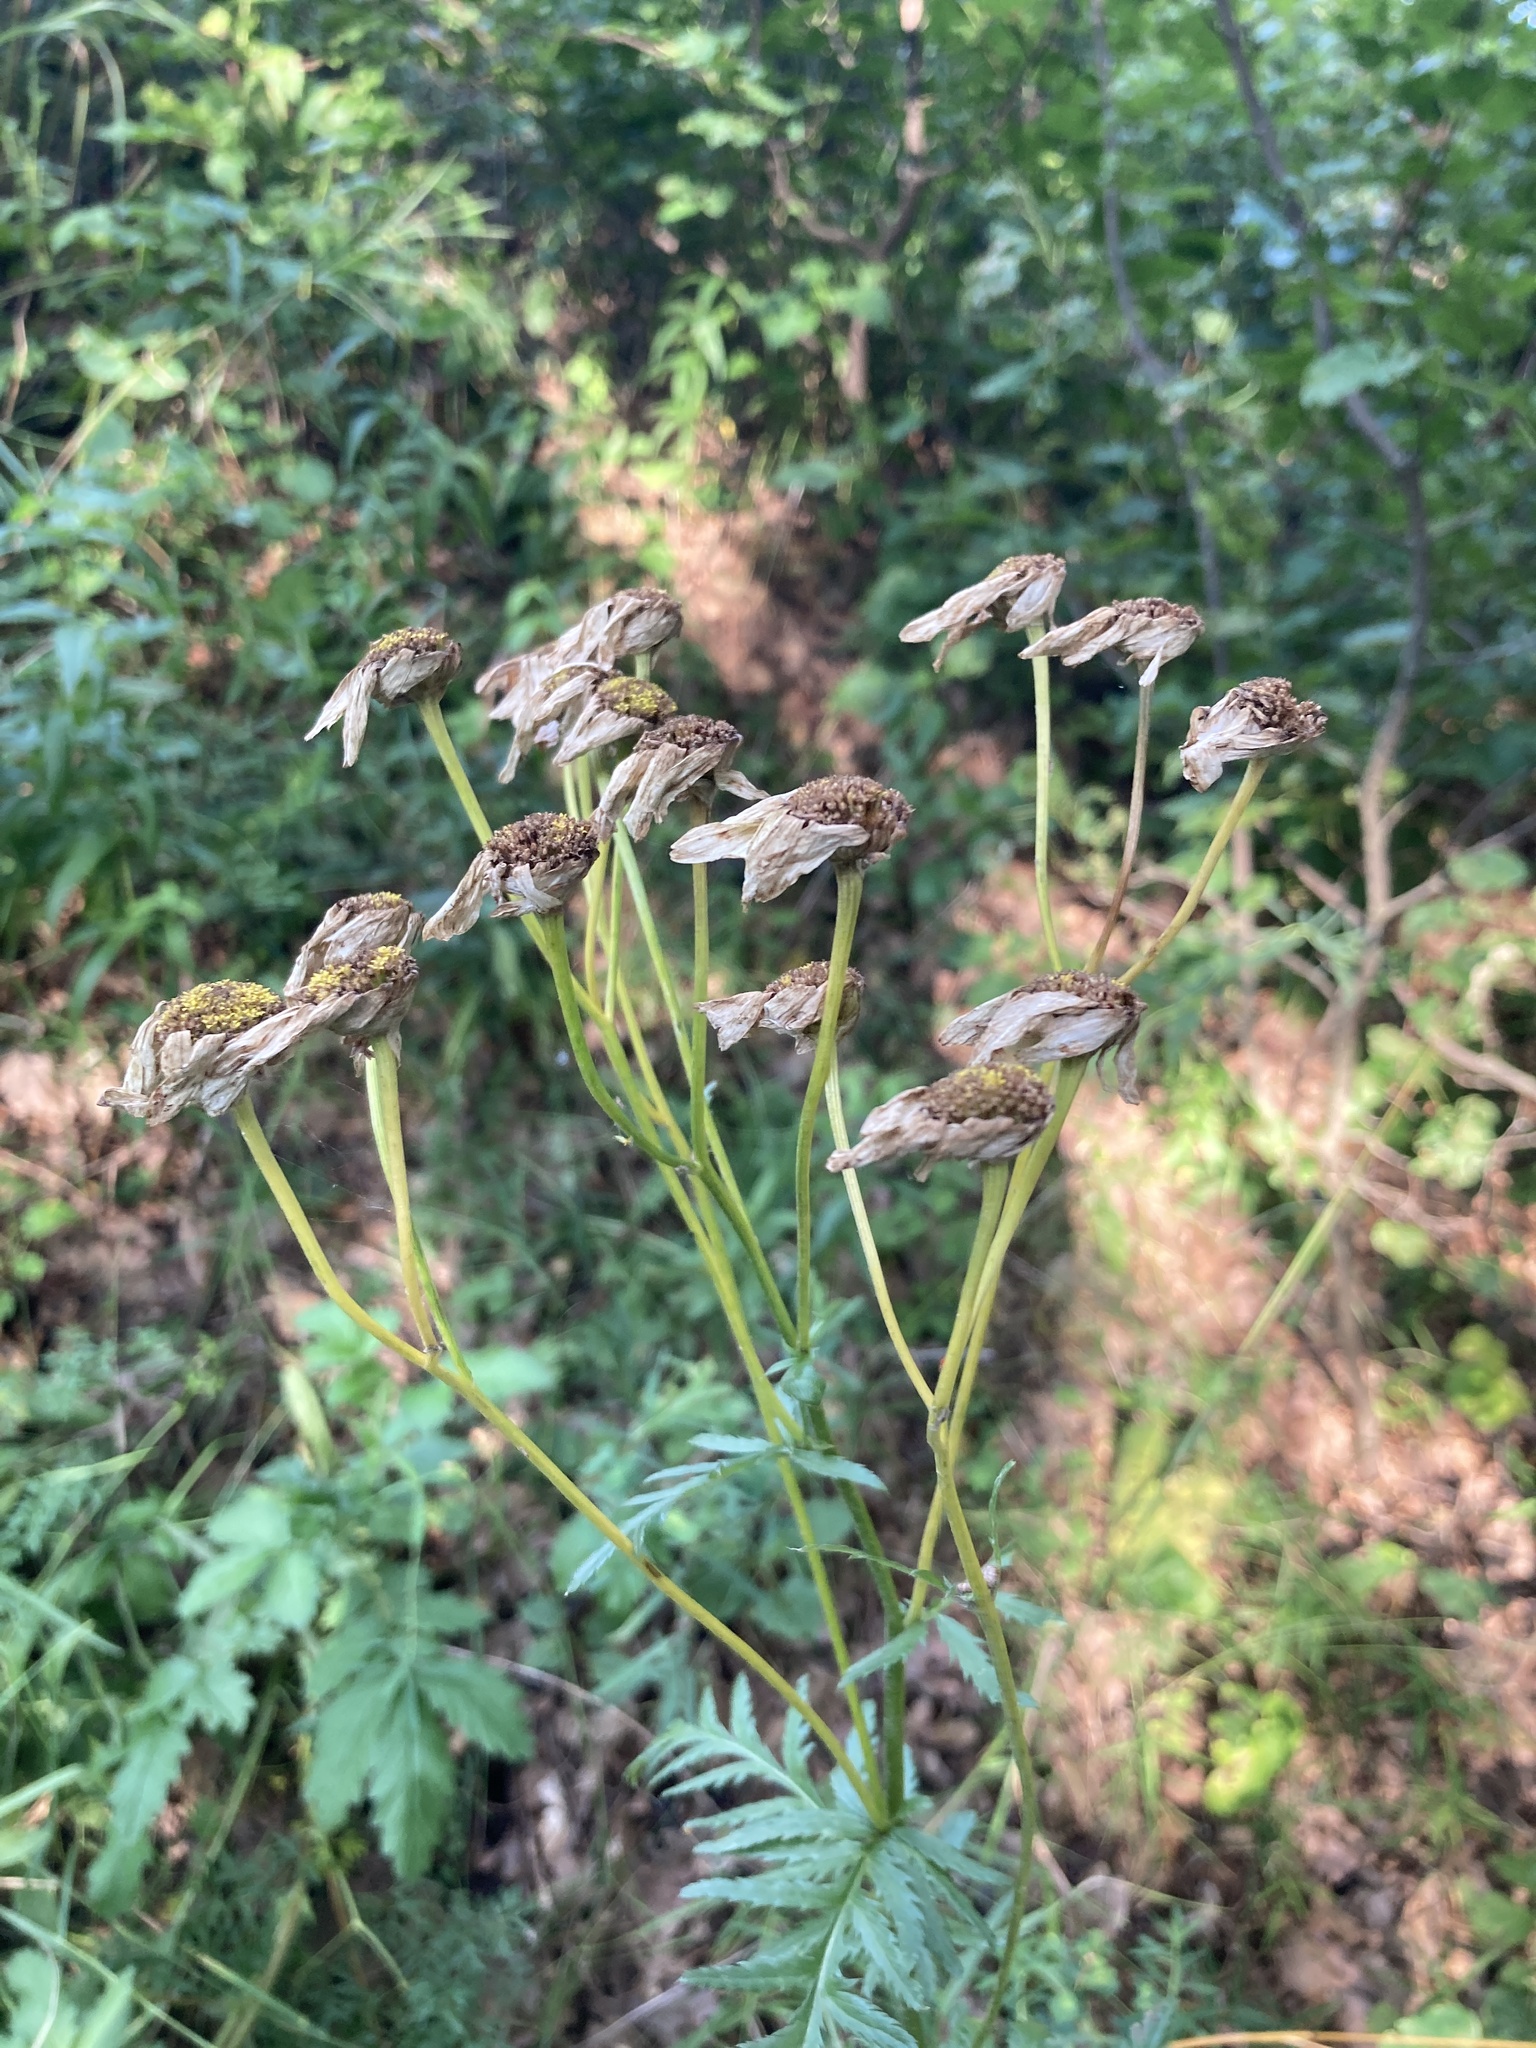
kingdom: Plantae
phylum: Tracheophyta
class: Magnoliopsida
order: Asterales
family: Asteraceae
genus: Tanacetum
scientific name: Tanacetum corymbosum
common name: Scentless feverfew
